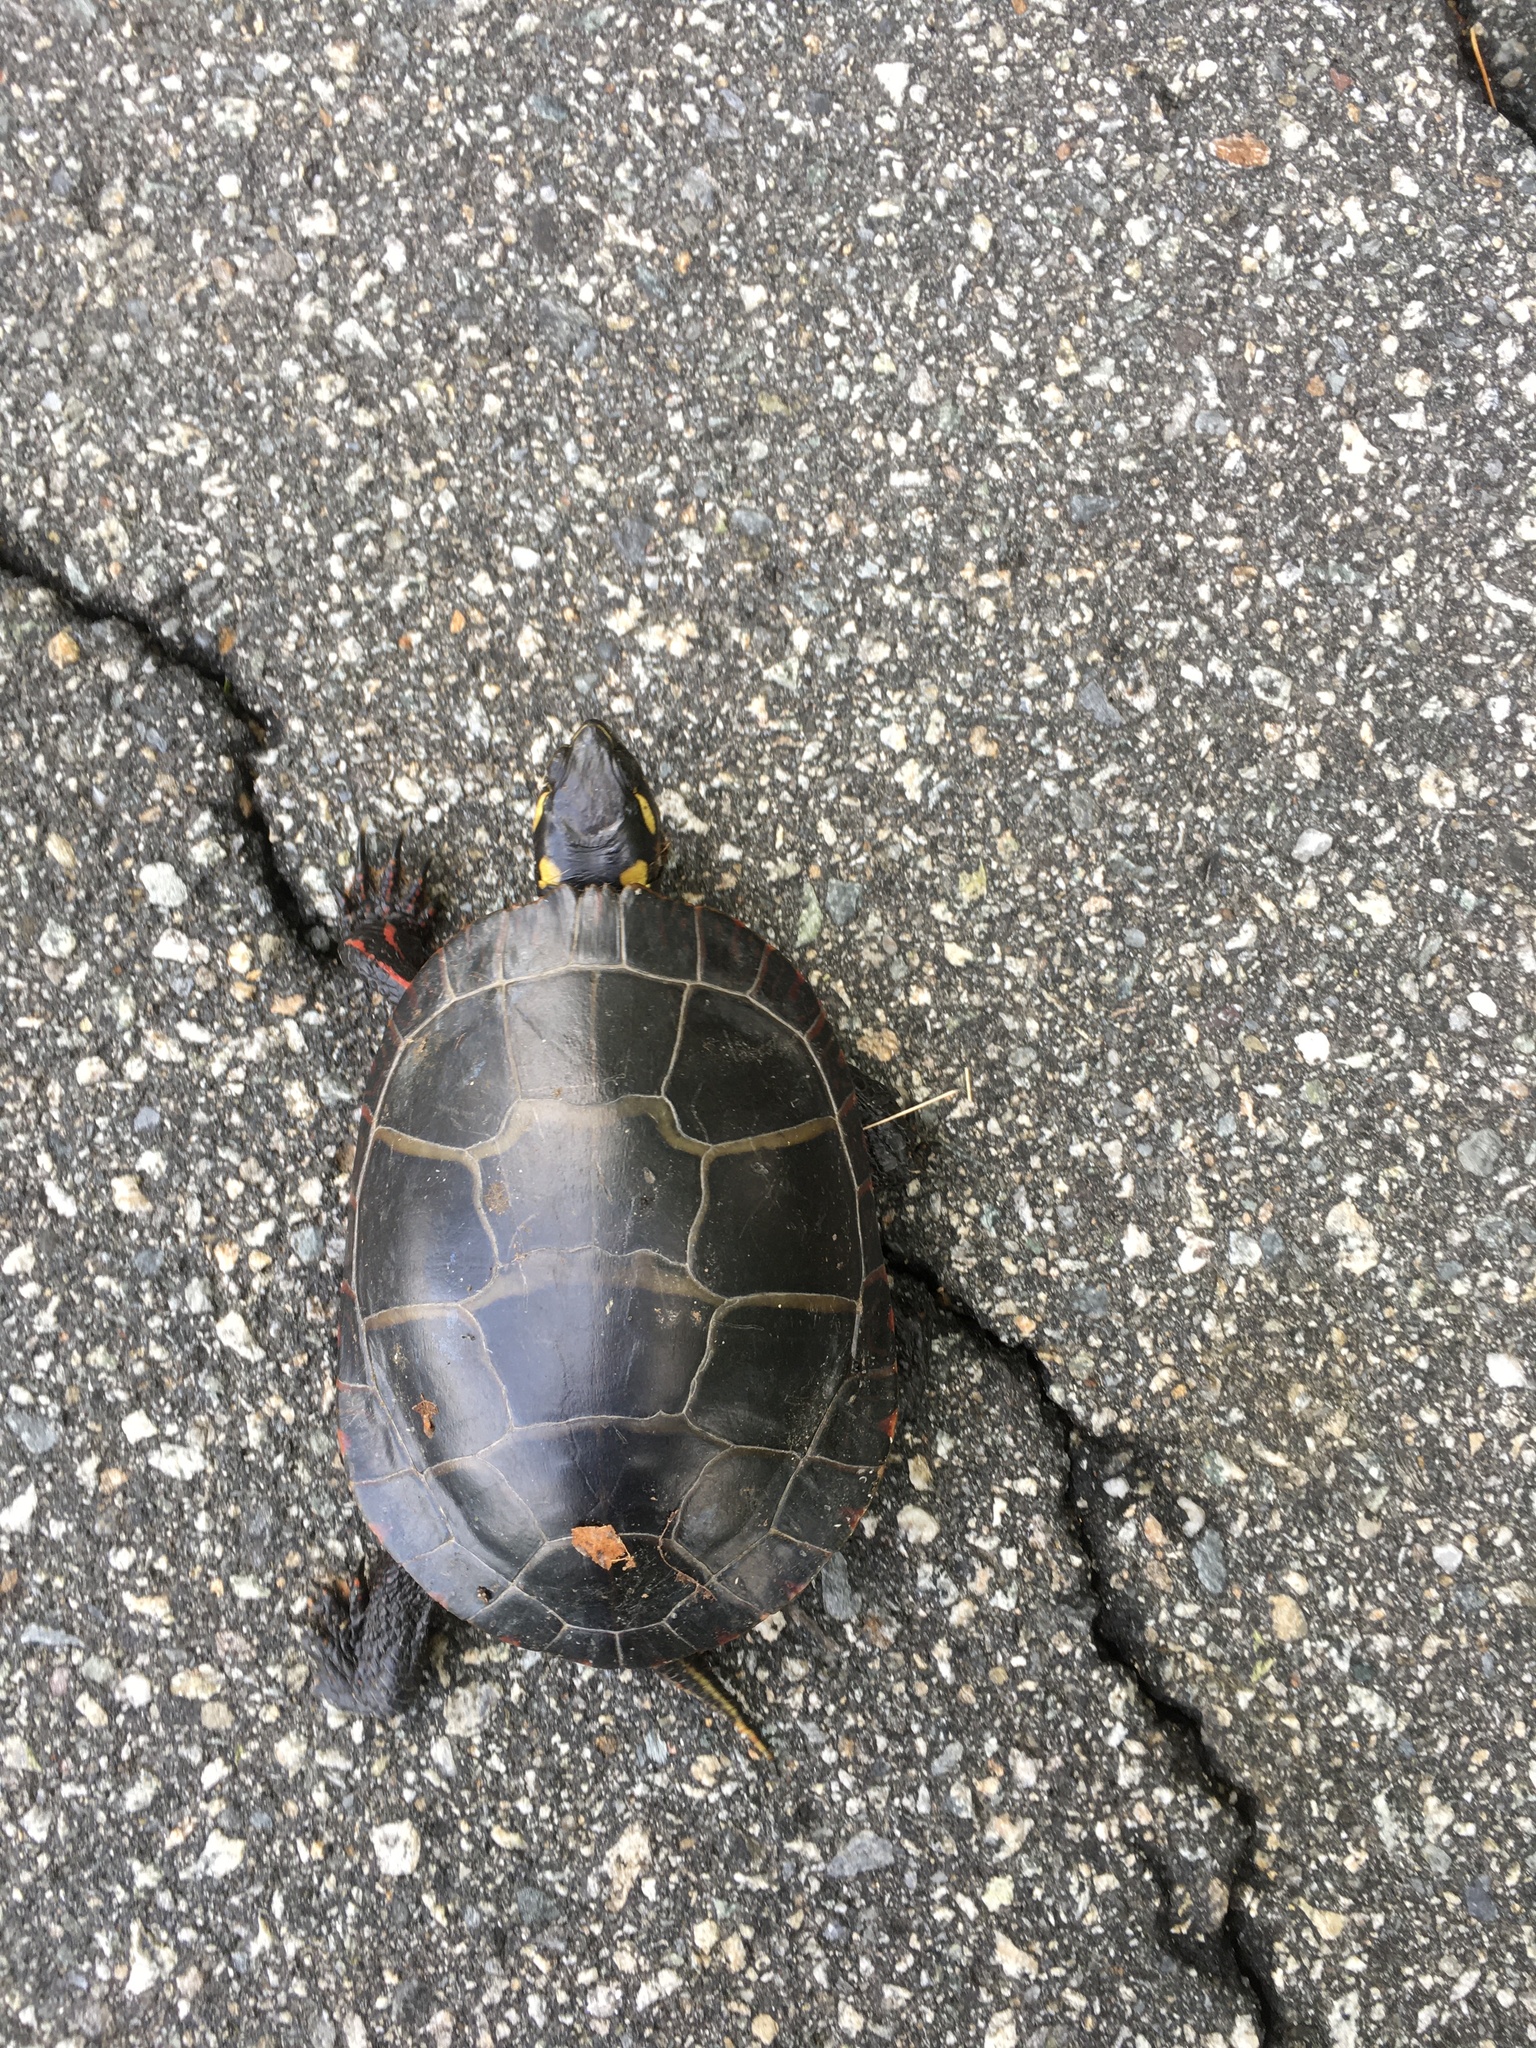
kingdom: Animalia
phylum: Chordata
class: Testudines
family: Emydidae
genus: Chrysemys
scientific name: Chrysemys picta
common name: Painted turtle
